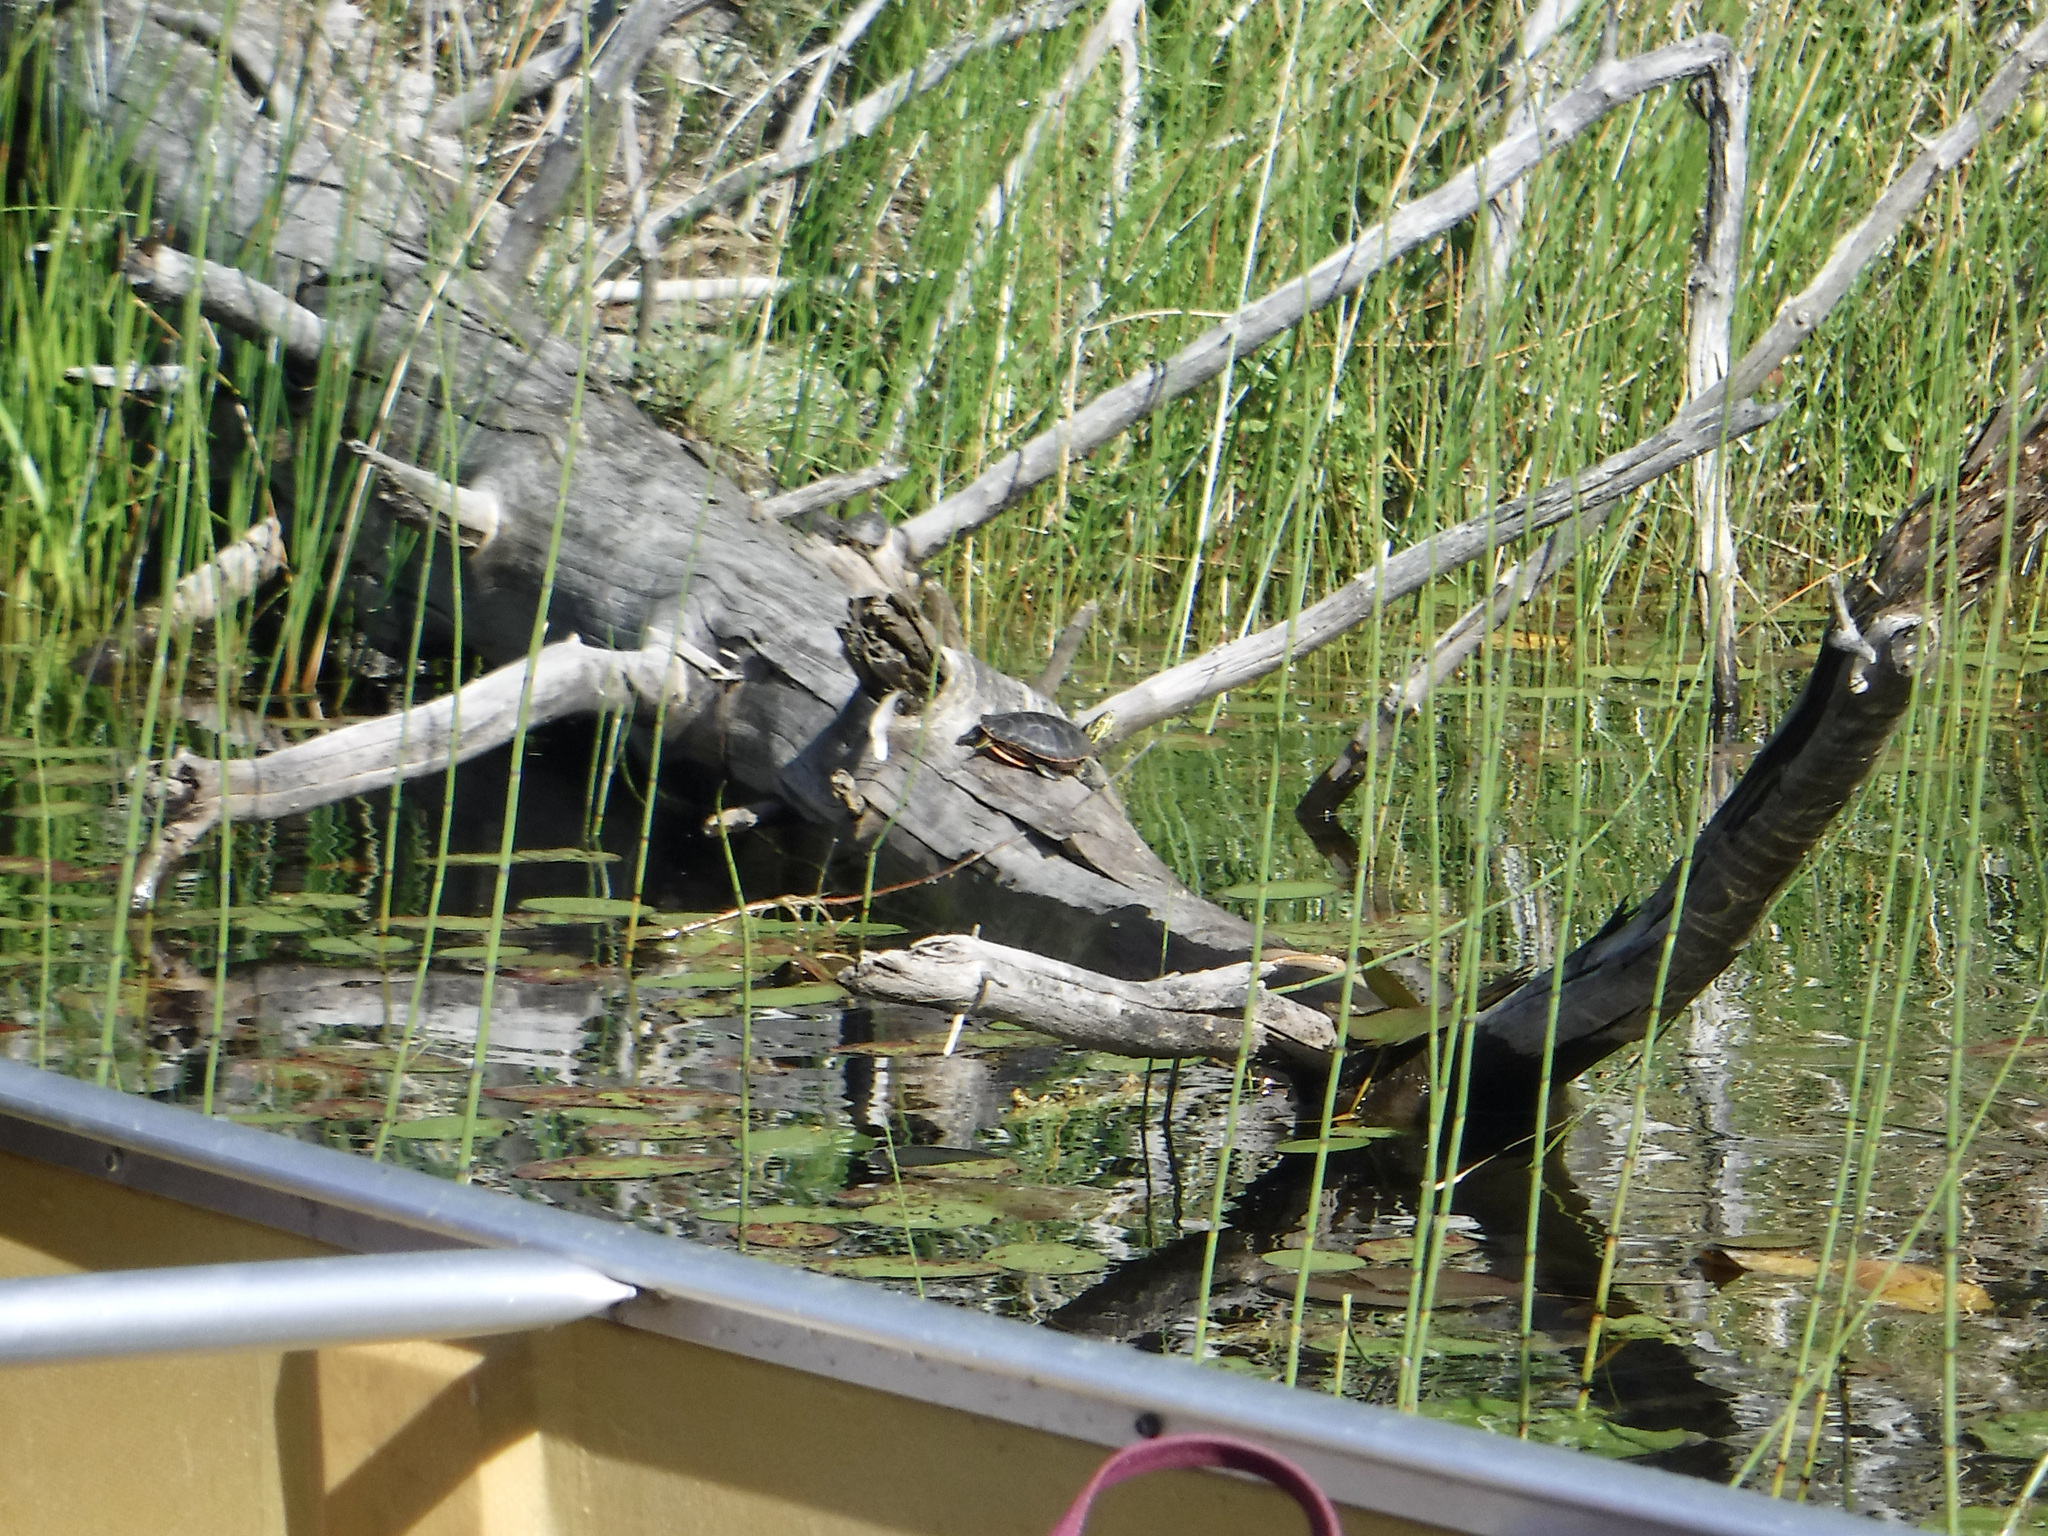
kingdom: Animalia
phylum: Chordata
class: Testudines
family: Emydidae
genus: Chrysemys
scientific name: Chrysemys picta
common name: Painted turtle
